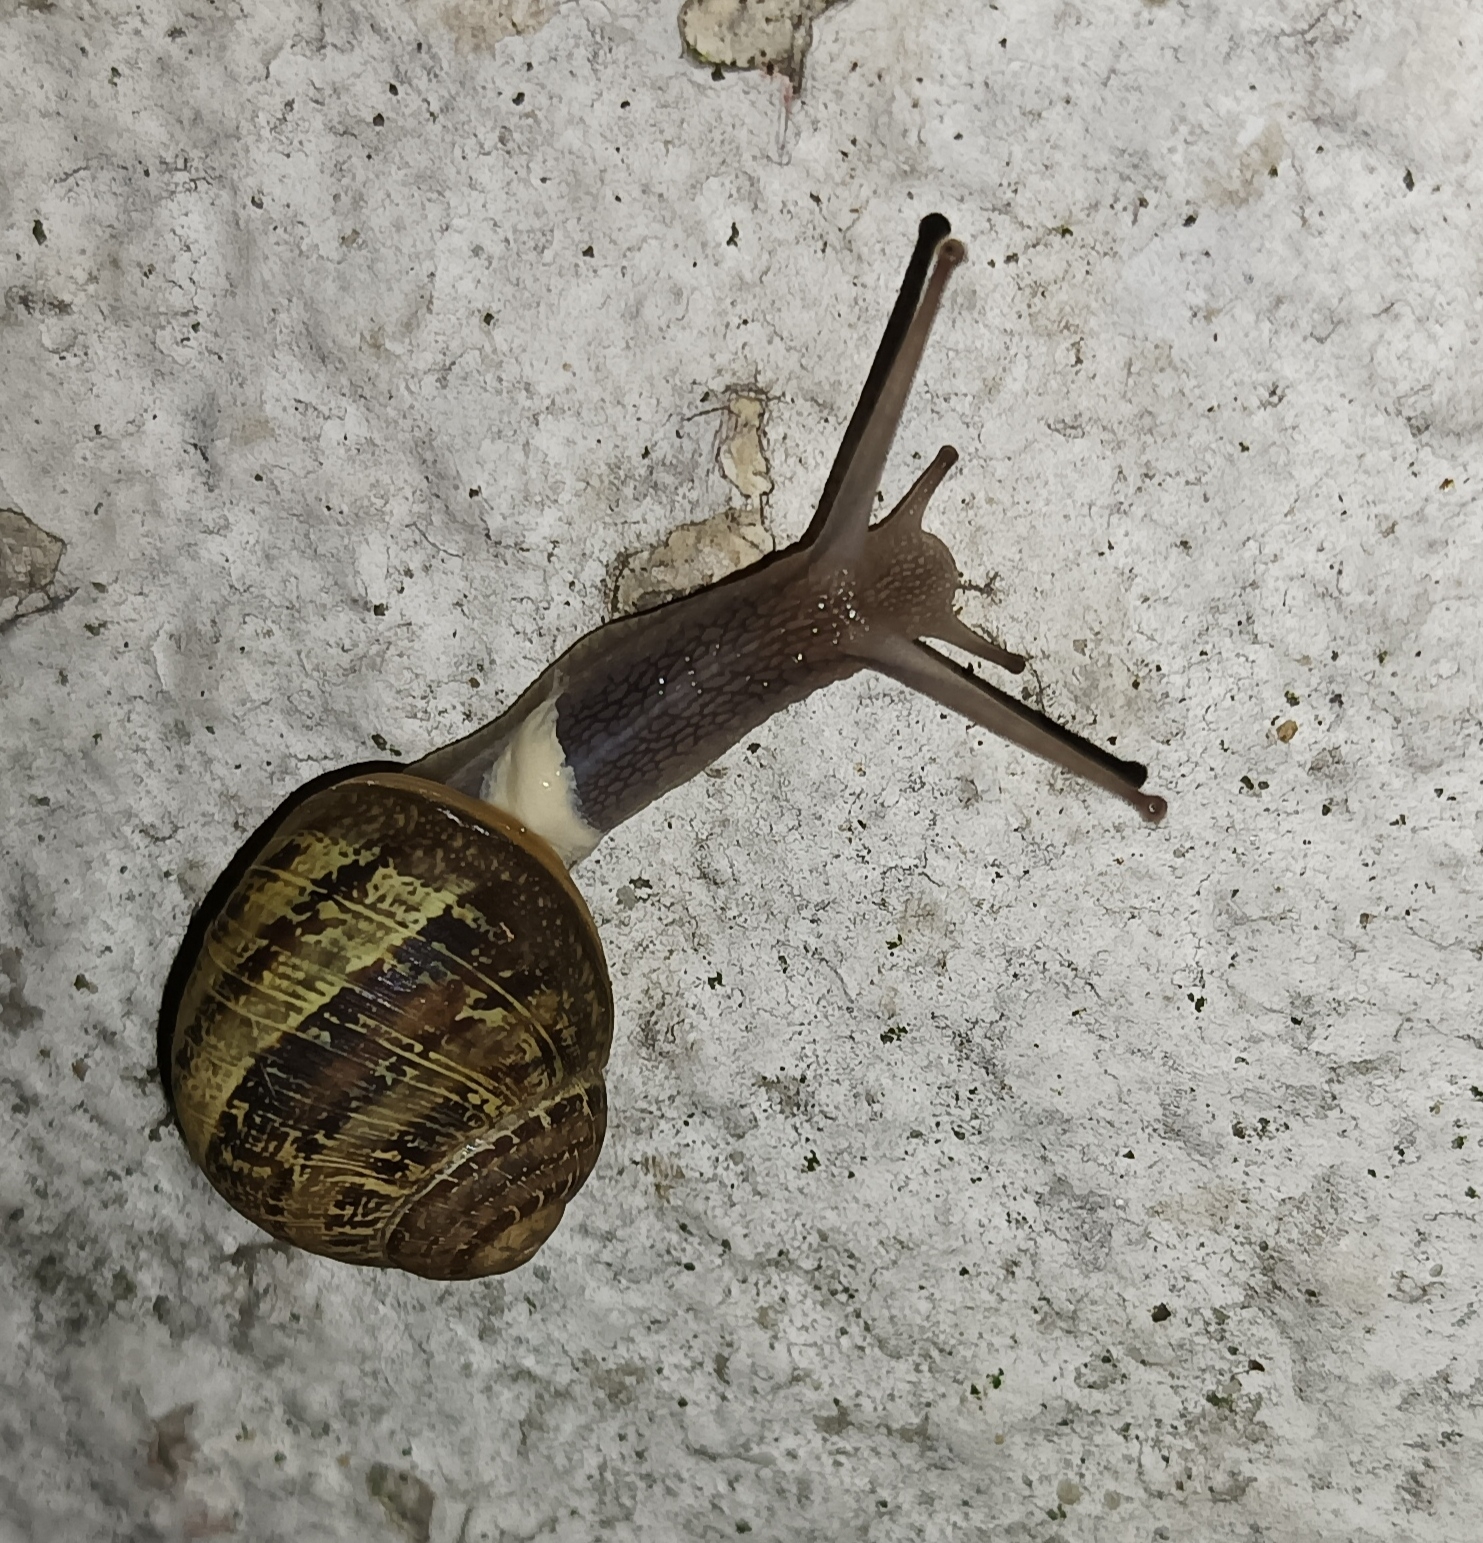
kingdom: Animalia
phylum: Mollusca
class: Gastropoda
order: Stylommatophora
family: Helicidae
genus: Cornu
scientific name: Cornu aspersum
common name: Brown garden snail
